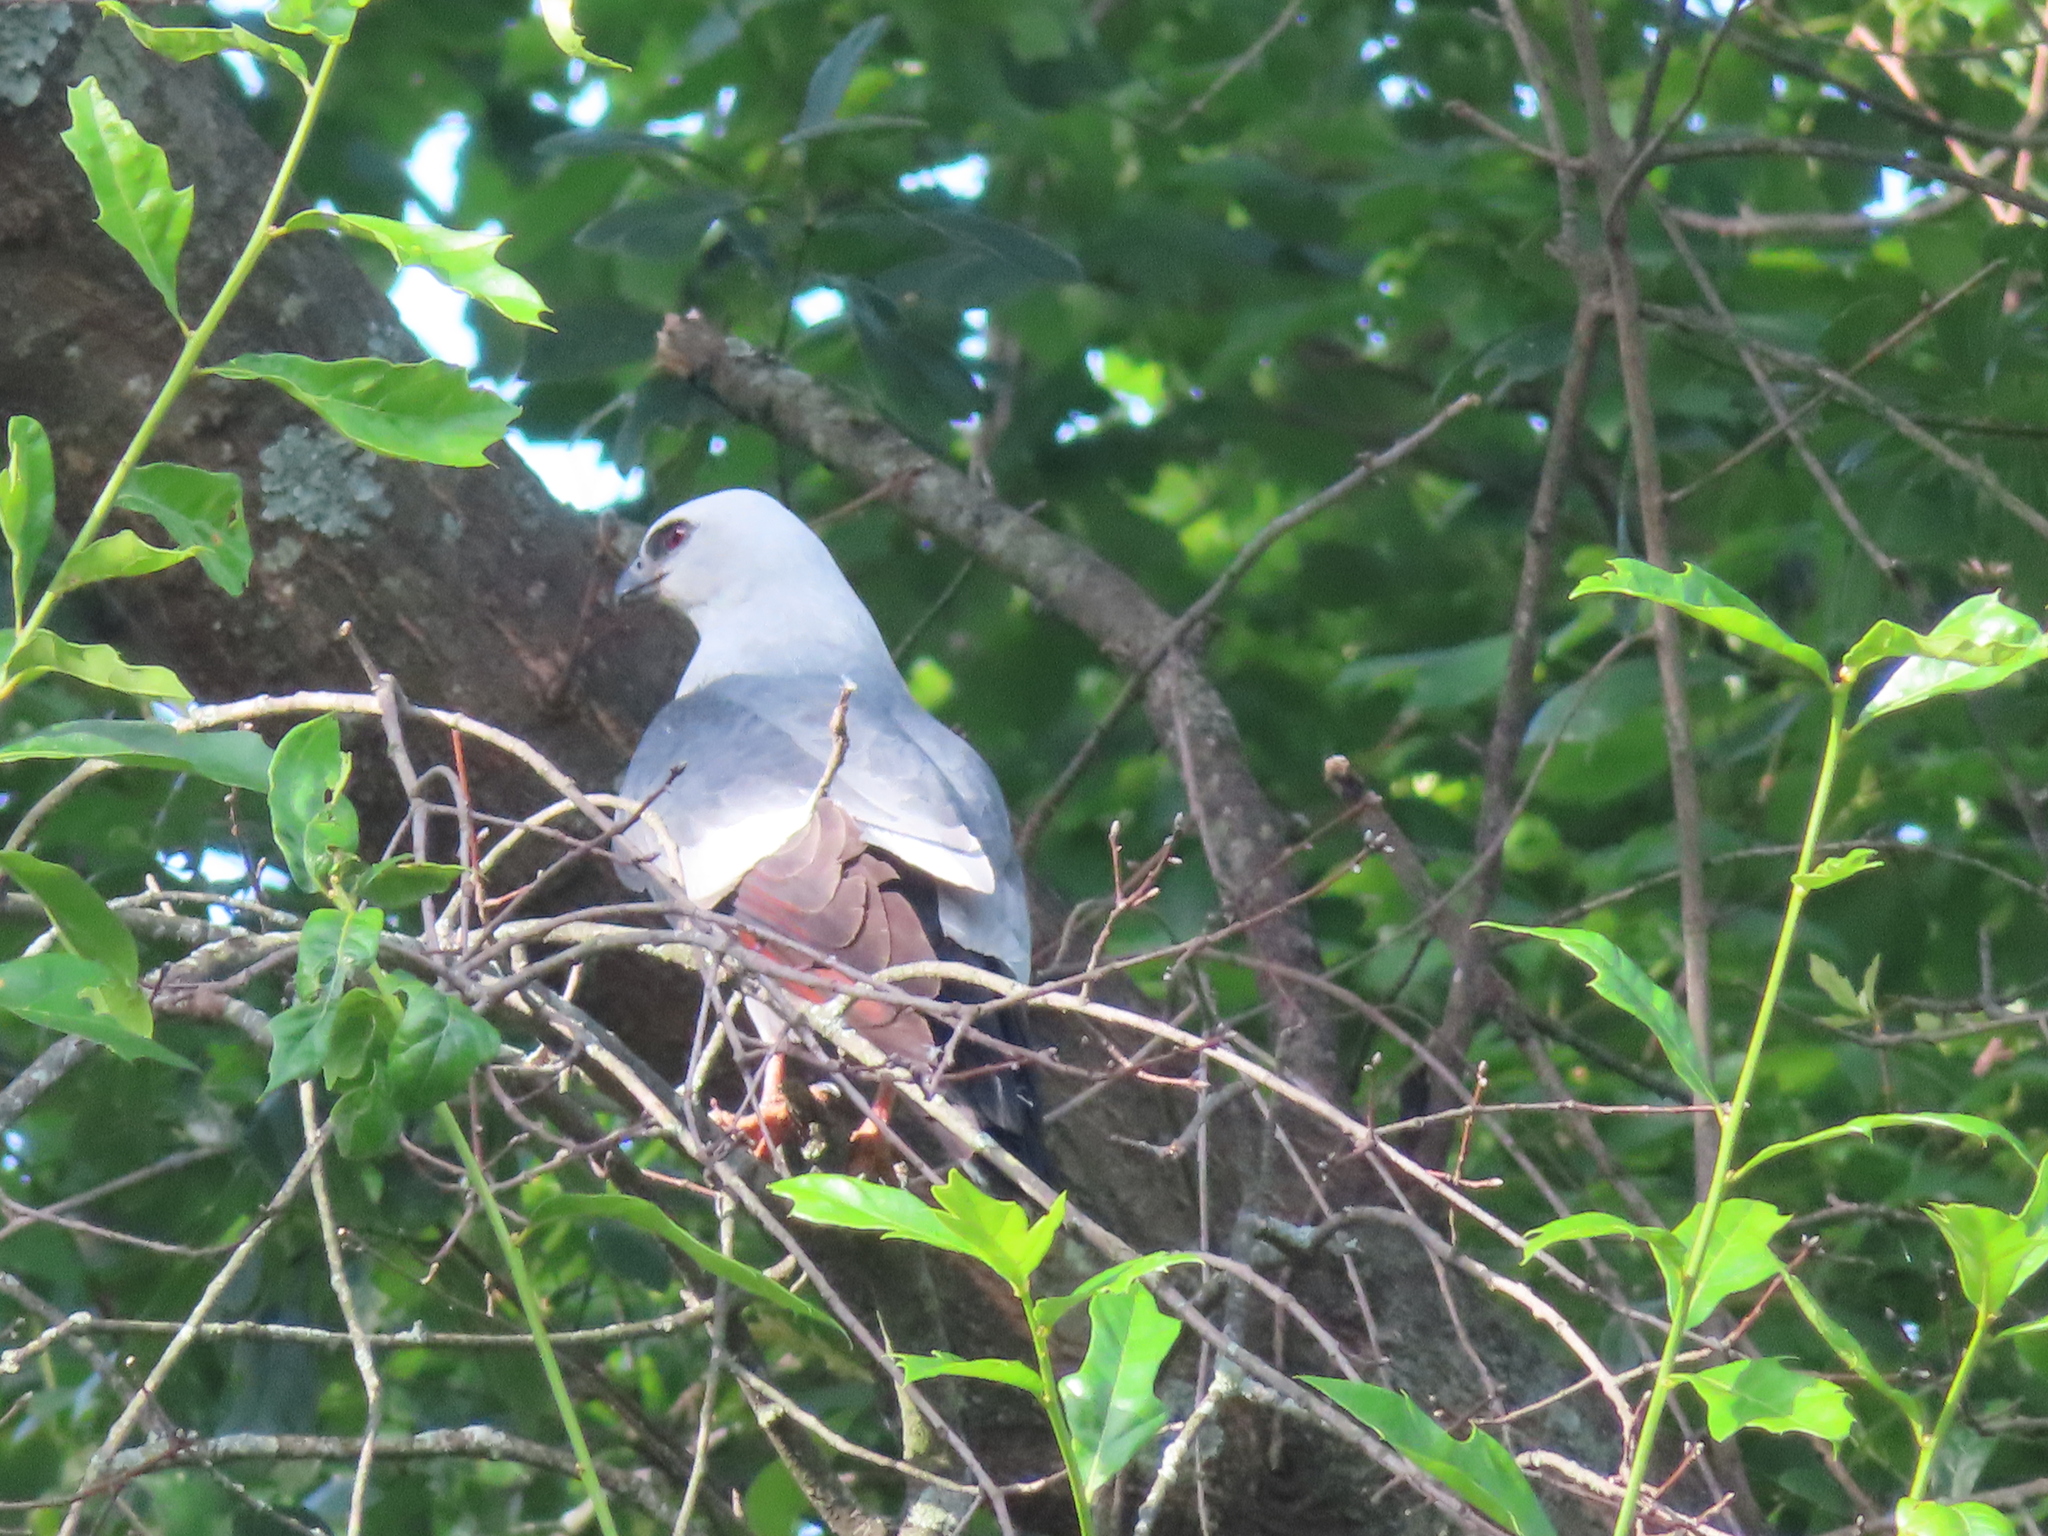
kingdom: Animalia
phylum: Chordata
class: Aves
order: Accipitriformes
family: Accipitridae
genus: Ictinia
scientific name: Ictinia mississippiensis
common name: Mississippi kite
